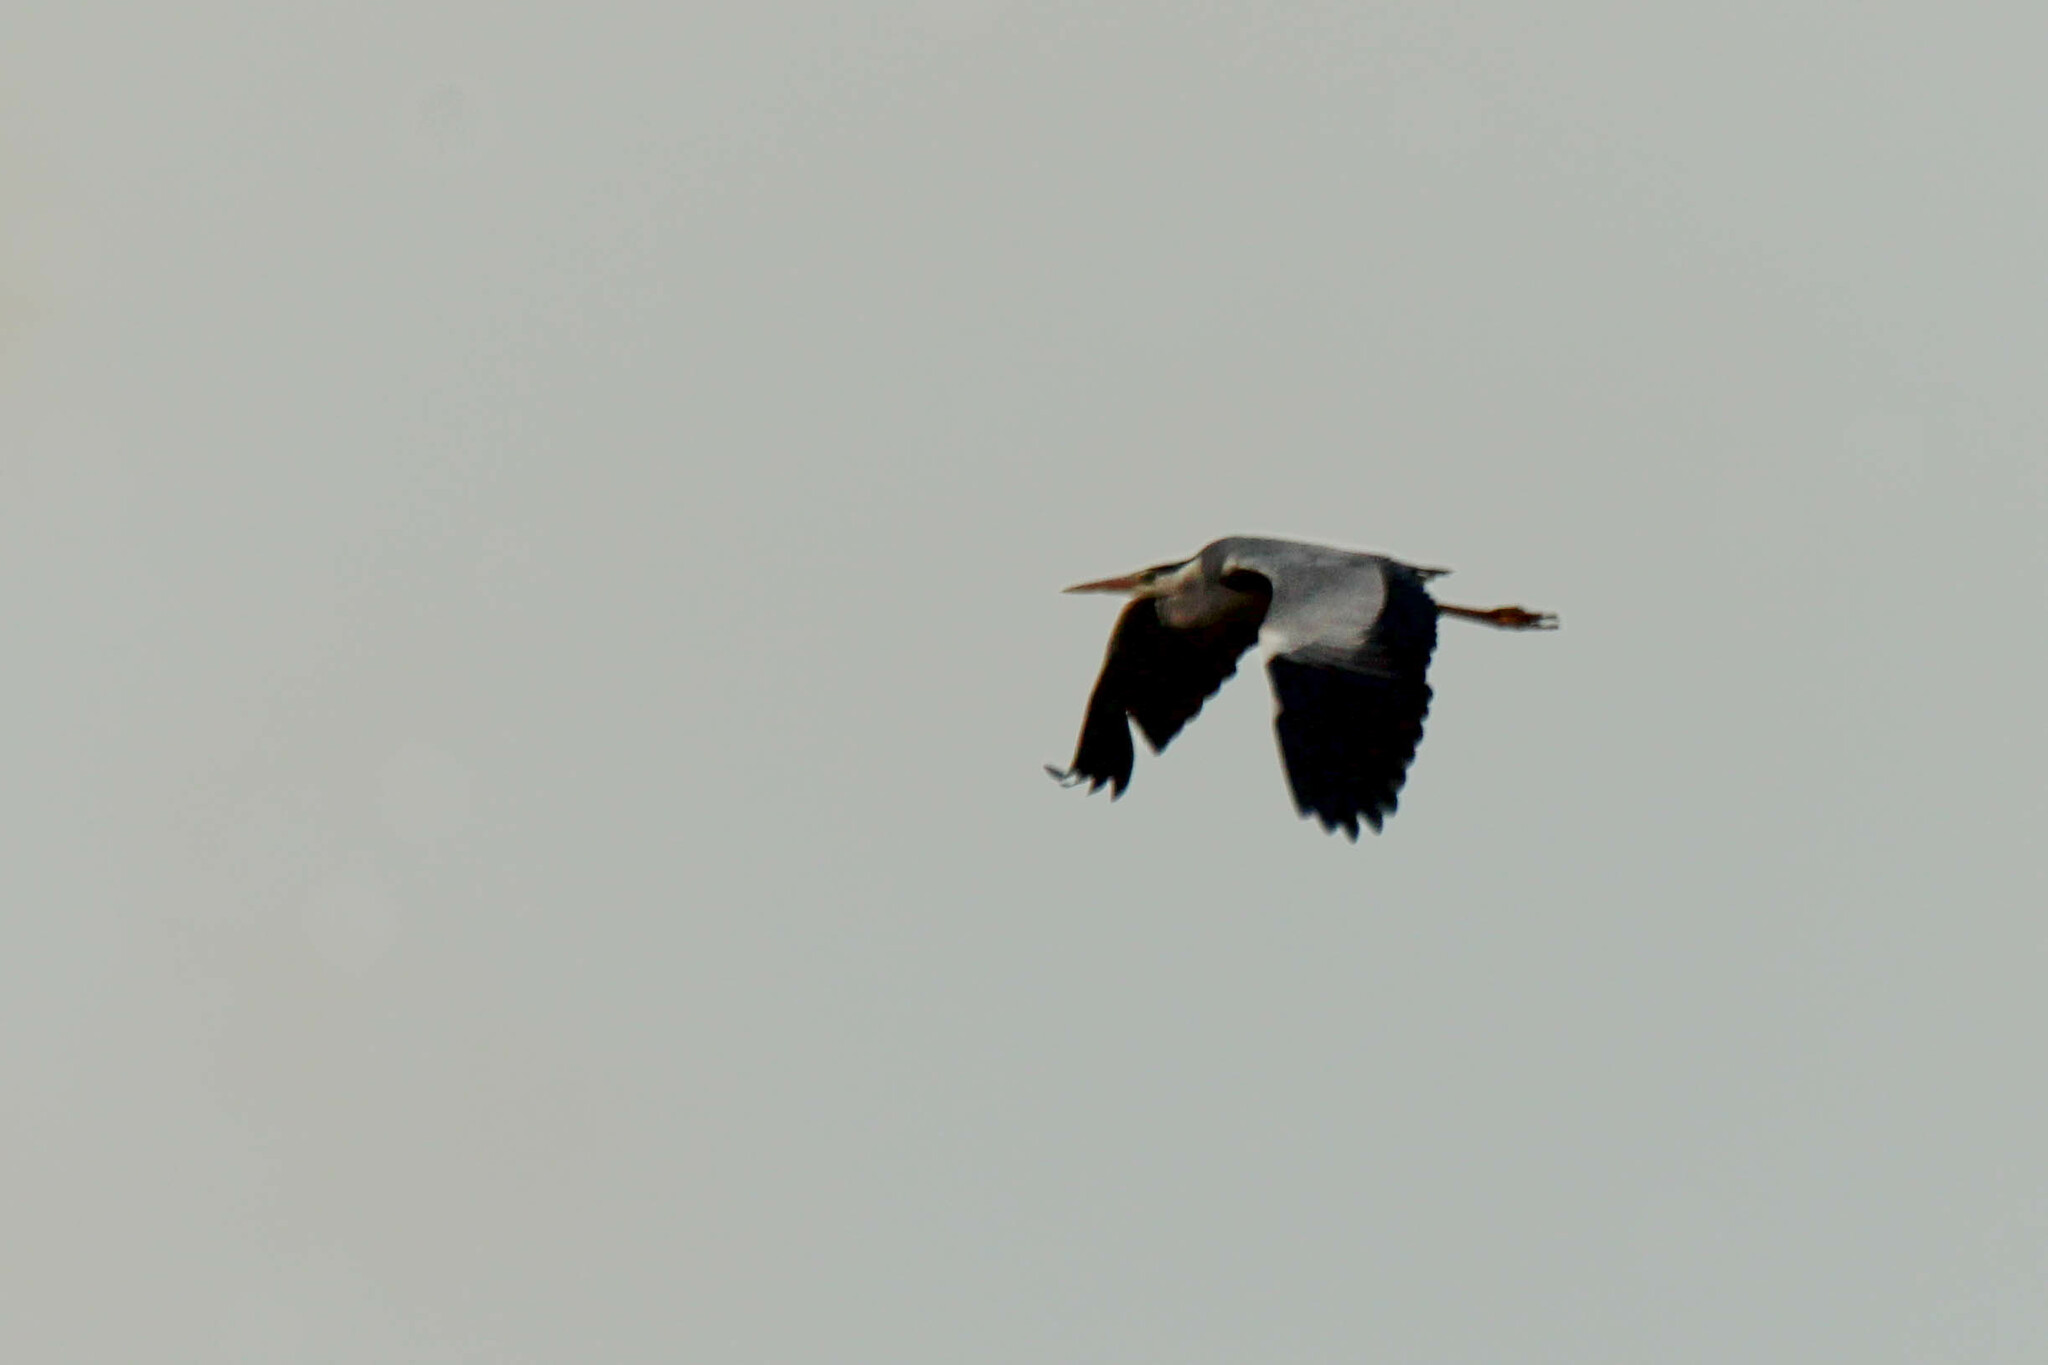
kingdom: Animalia
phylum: Chordata
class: Aves
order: Pelecaniformes
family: Ardeidae
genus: Ardea
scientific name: Ardea cinerea
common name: Grey heron
